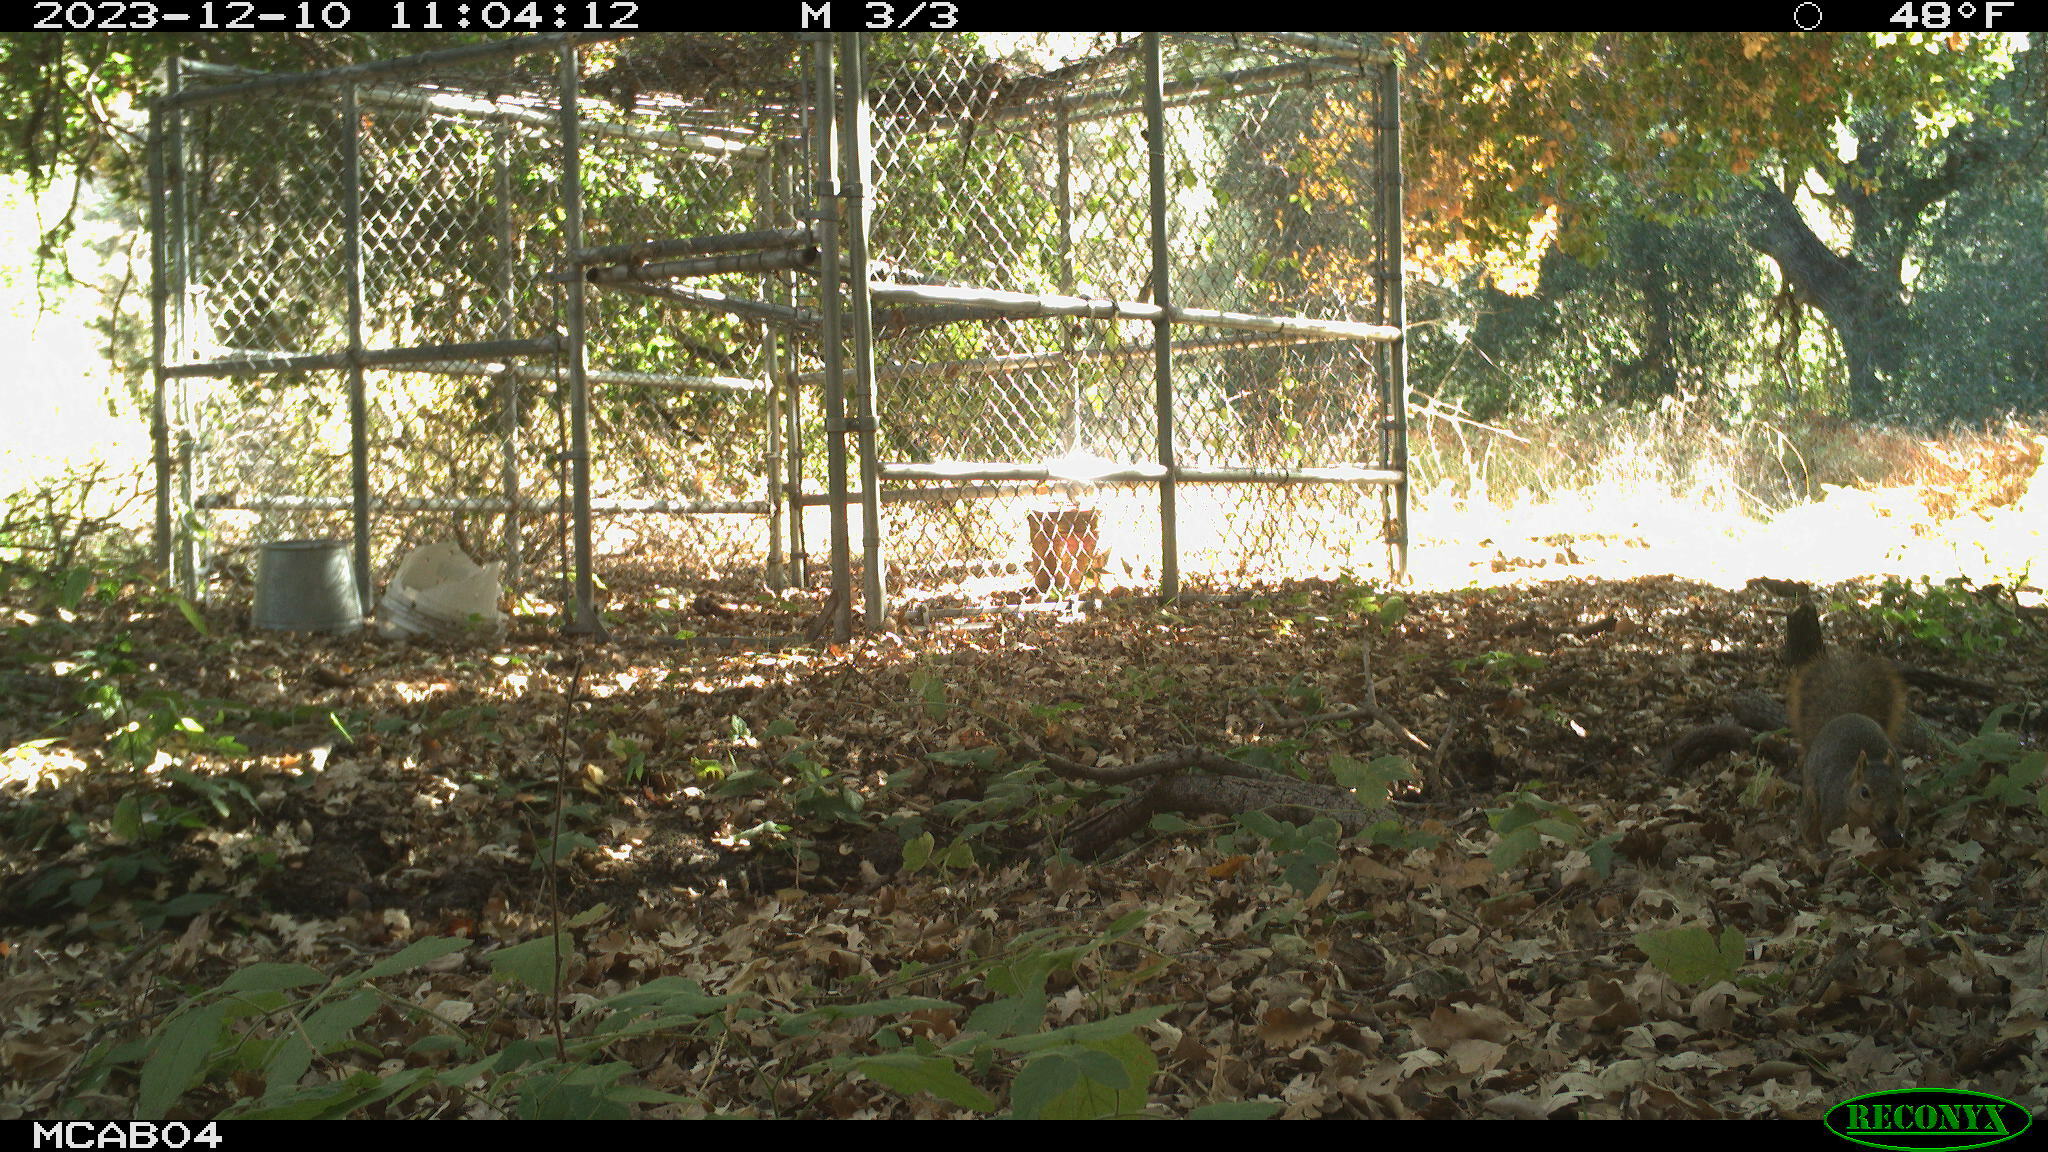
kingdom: Animalia
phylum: Chordata
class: Mammalia
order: Rodentia
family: Sciuridae
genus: Sciurus
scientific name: Sciurus niger
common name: Fox squirrel
